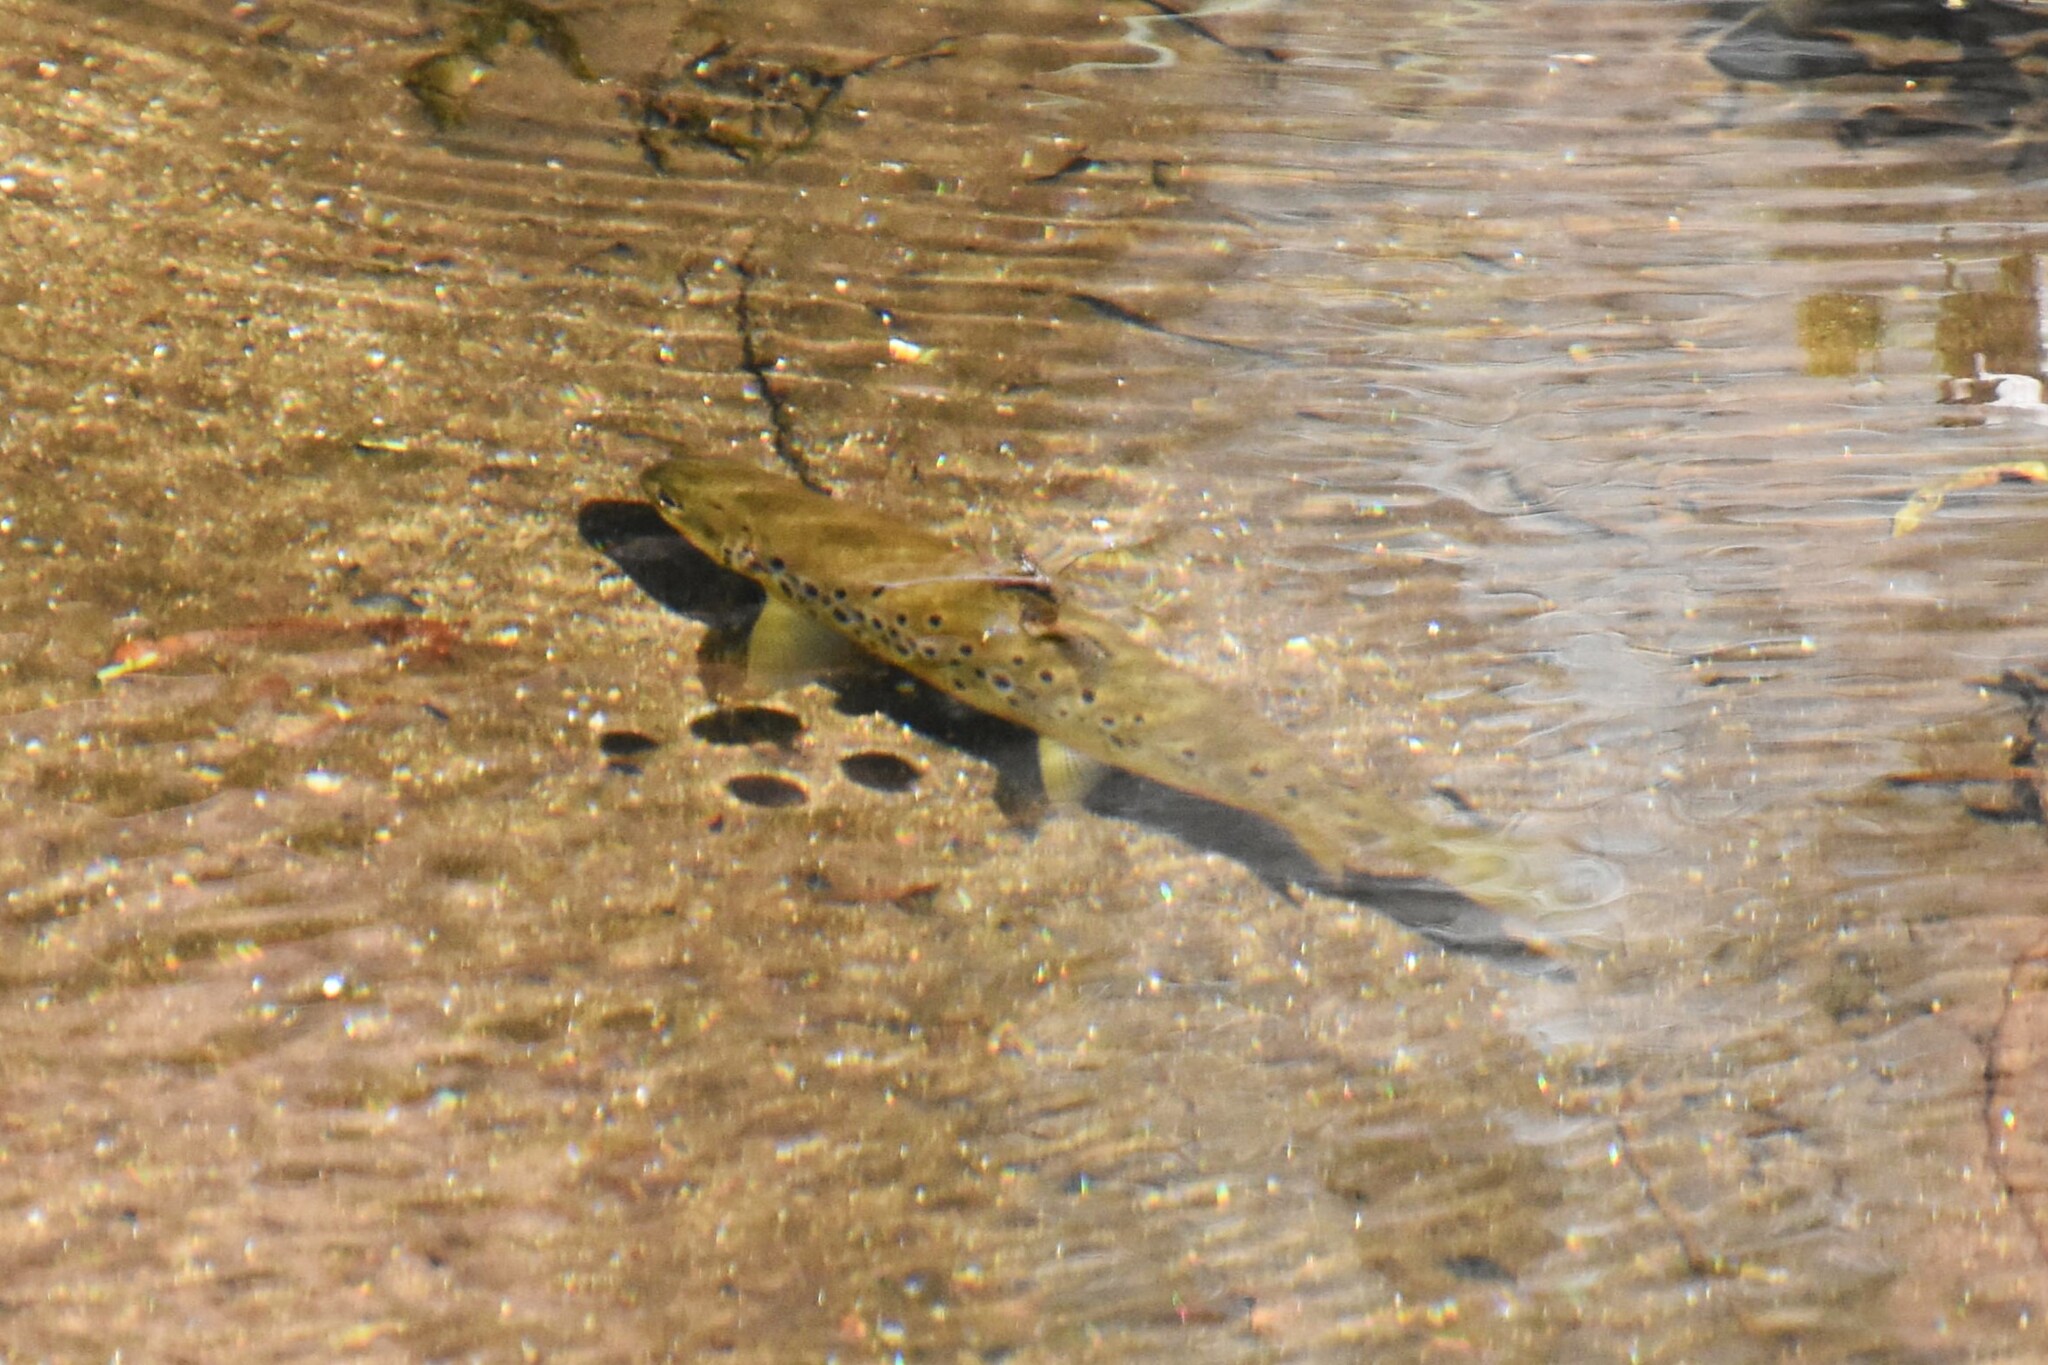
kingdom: Animalia
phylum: Chordata
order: Salmoniformes
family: Salmonidae
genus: Salmo
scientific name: Salmo trutta
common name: Brown trout
